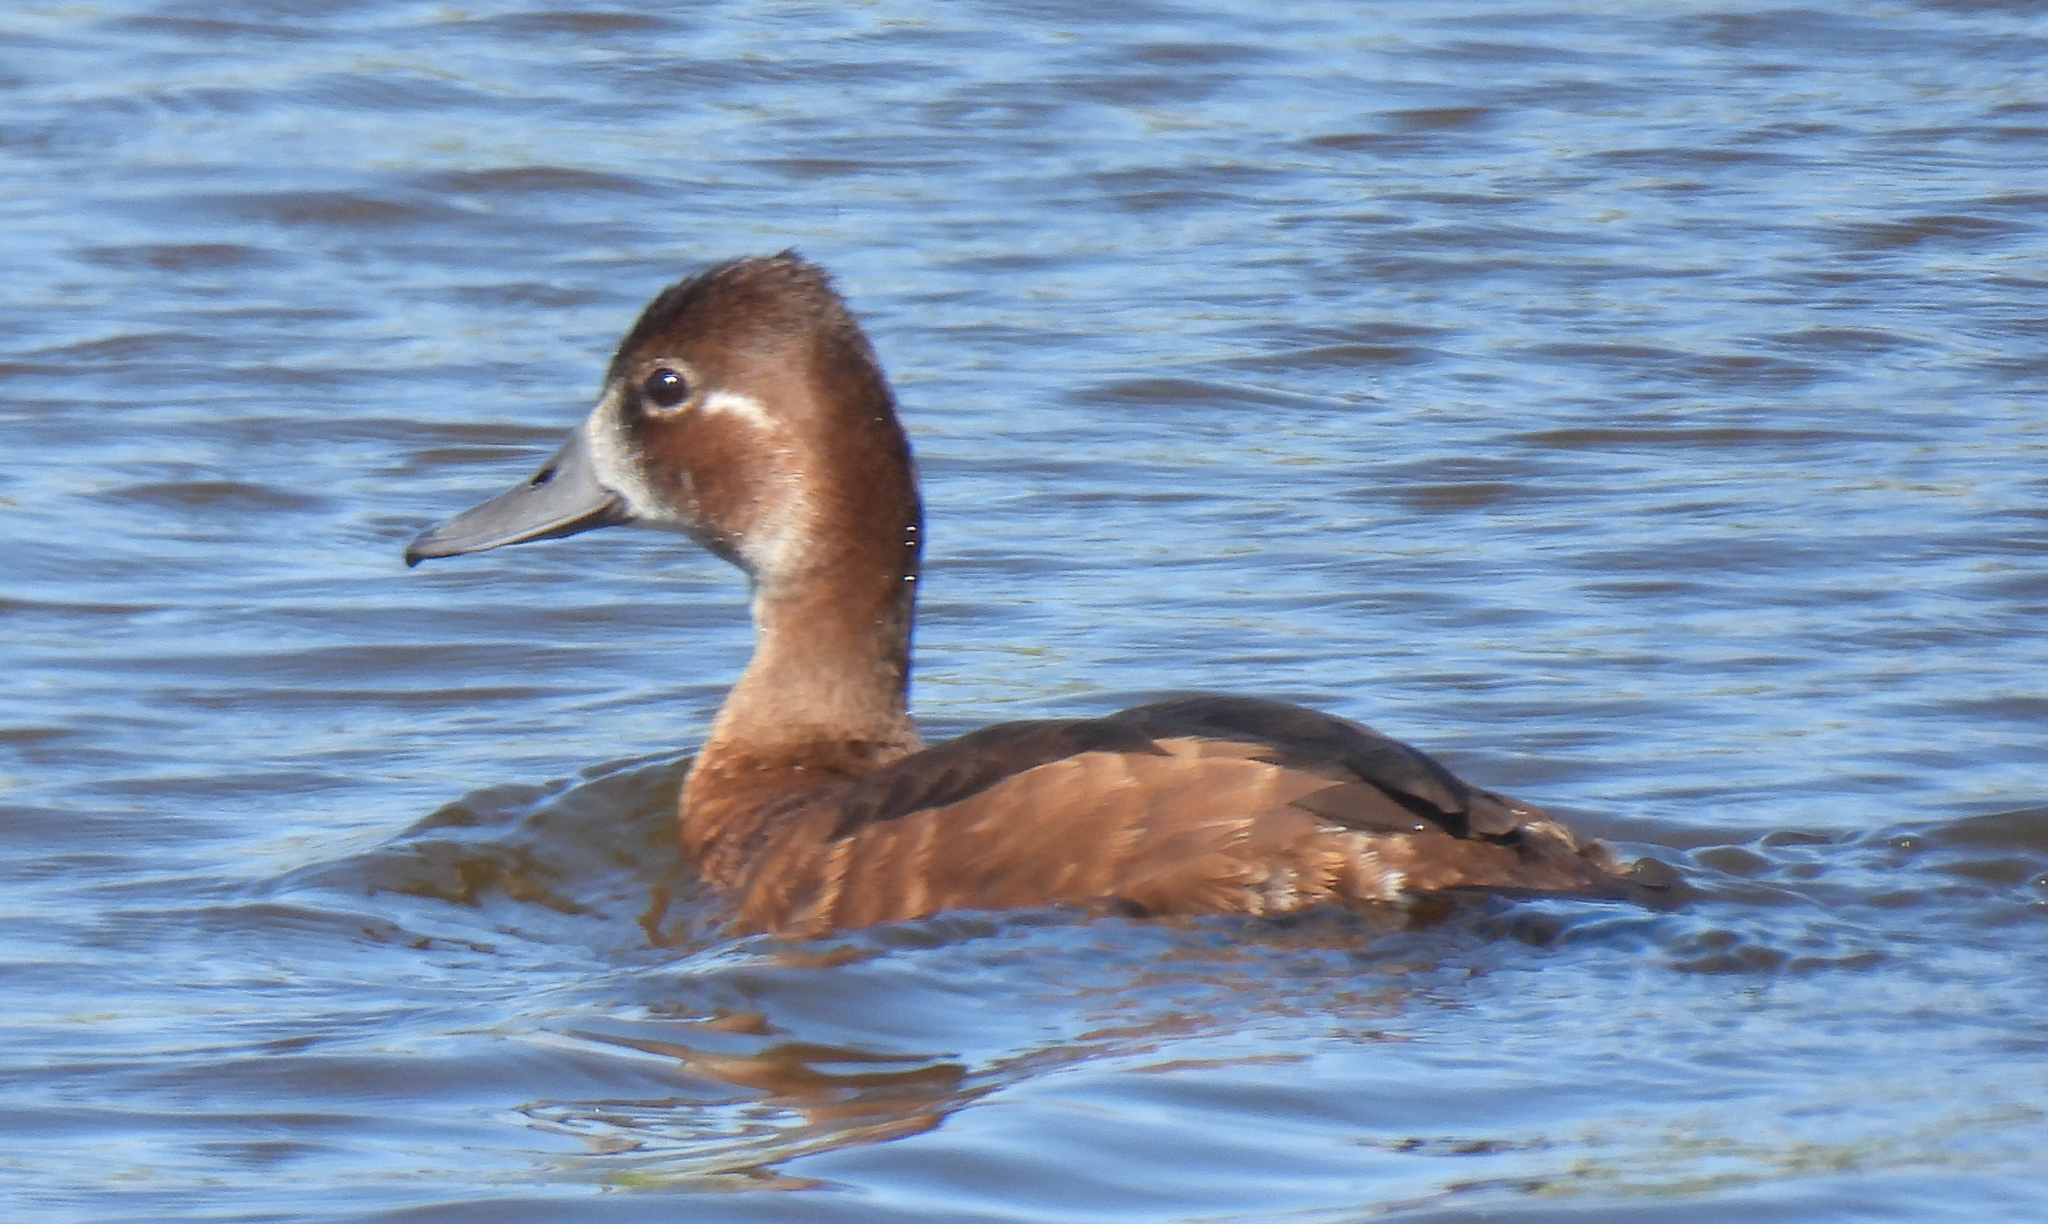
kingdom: Animalia
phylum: Chordata
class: Aves
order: Anseriformes
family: Anatidae
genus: Netta
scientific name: Netta erythrophthalma
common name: Southern pochard
